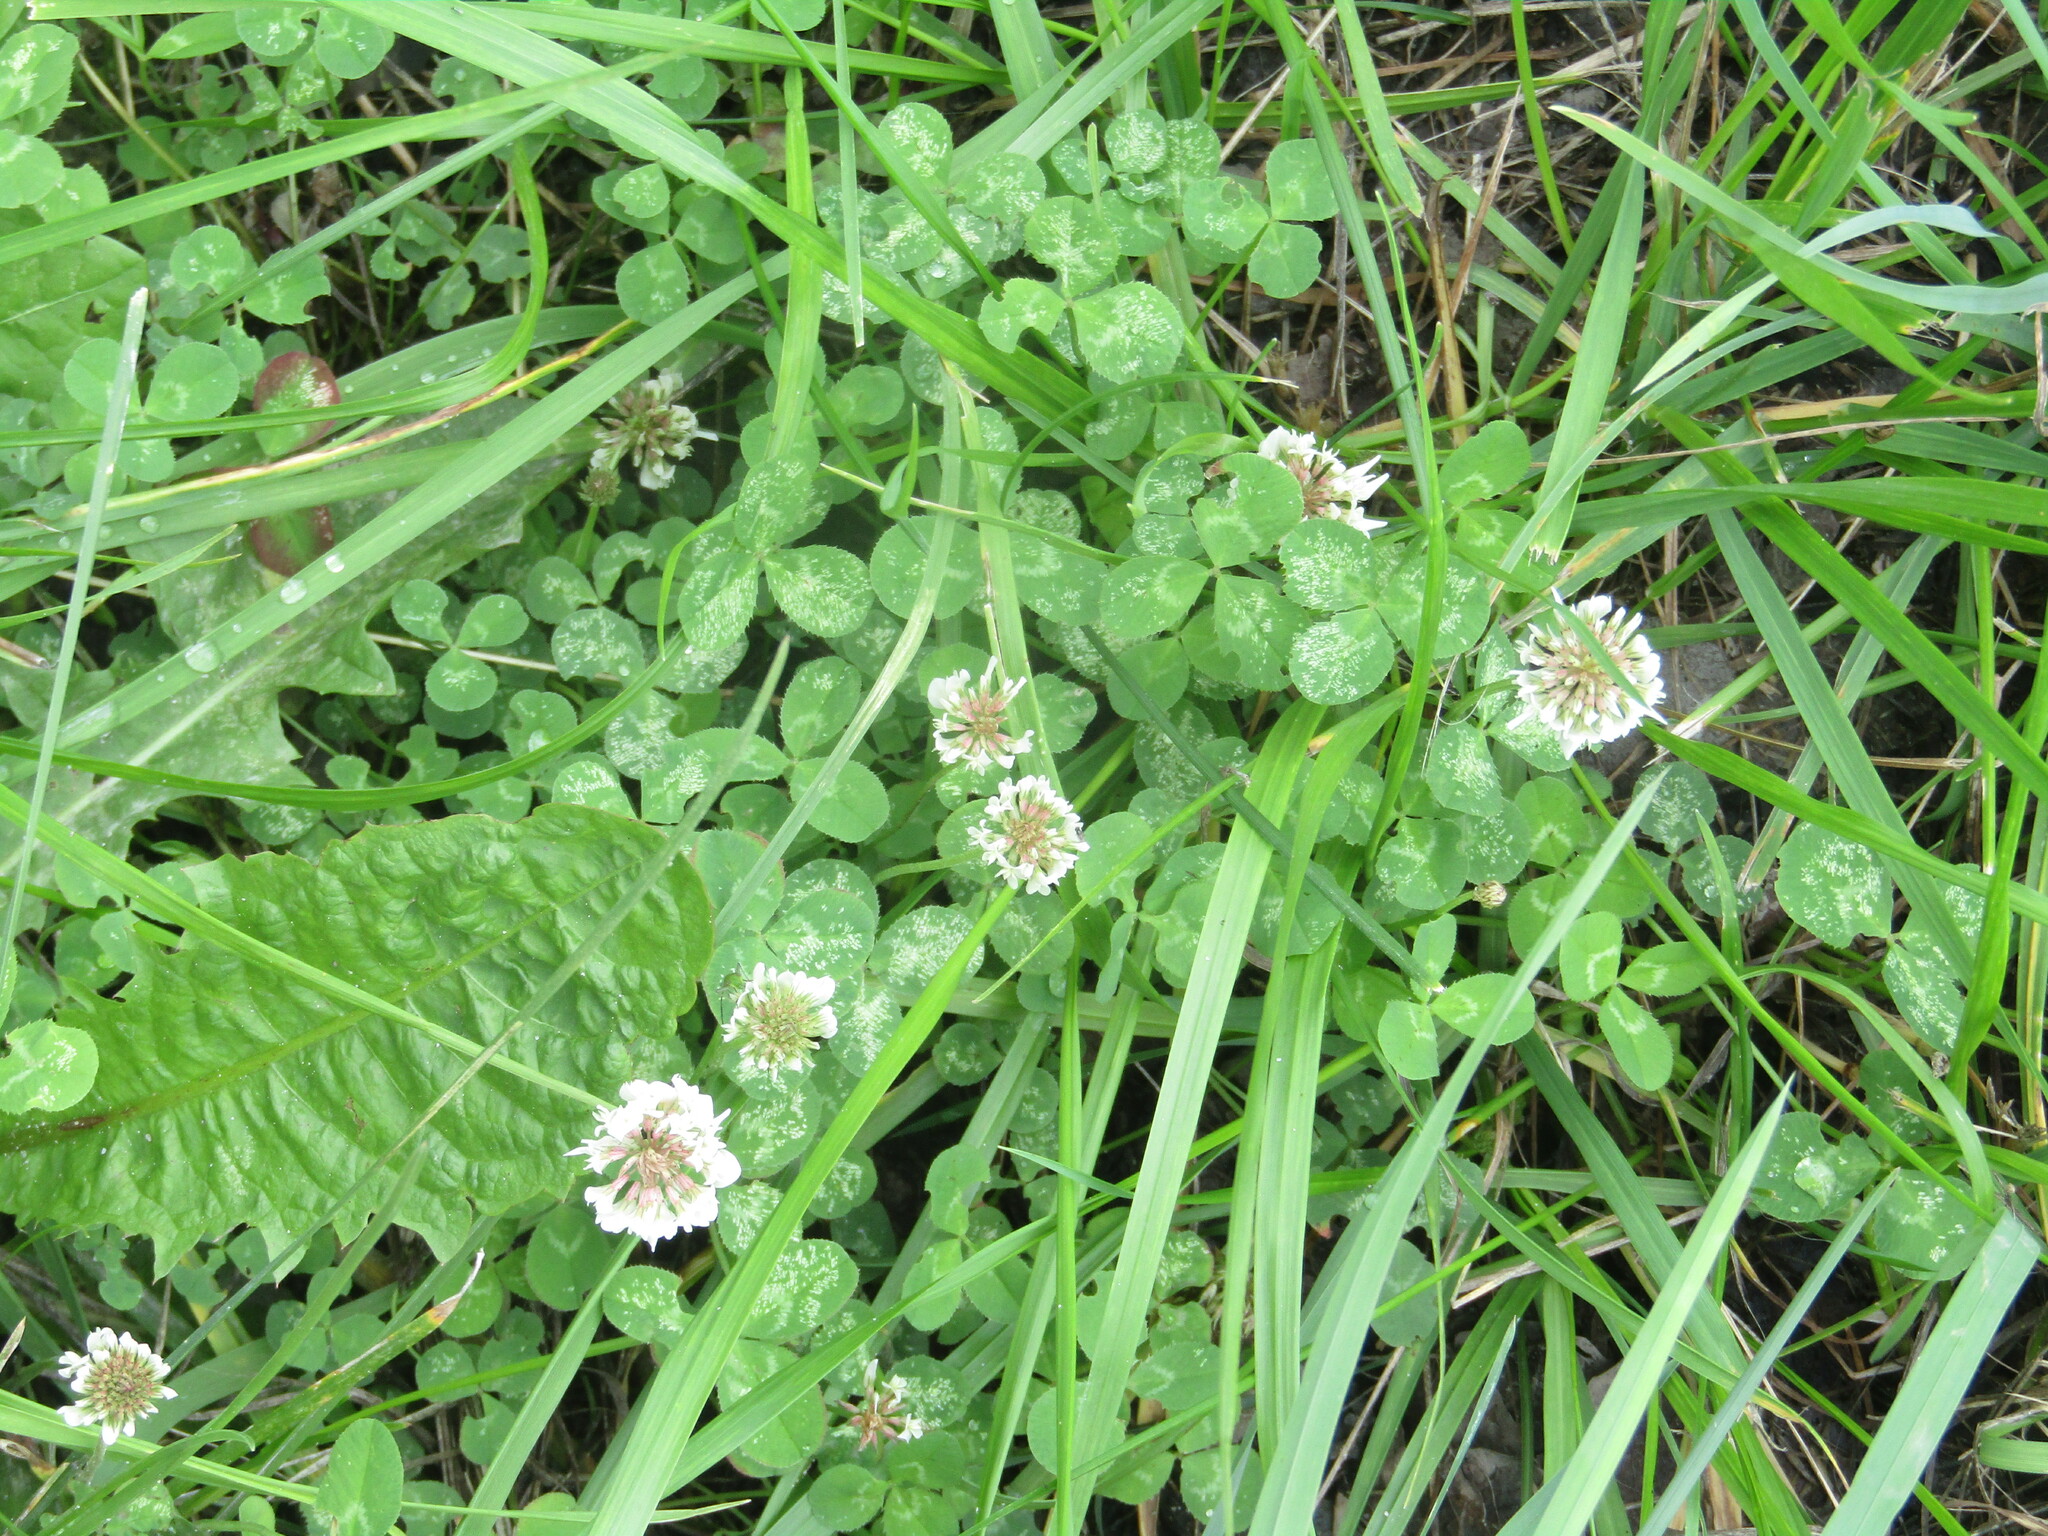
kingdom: Plantae
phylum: Tracheophyta
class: Magnoliopsida
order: Fabales
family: Fabaceae
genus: Trifolium
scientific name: Trifolium repens
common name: White clover
